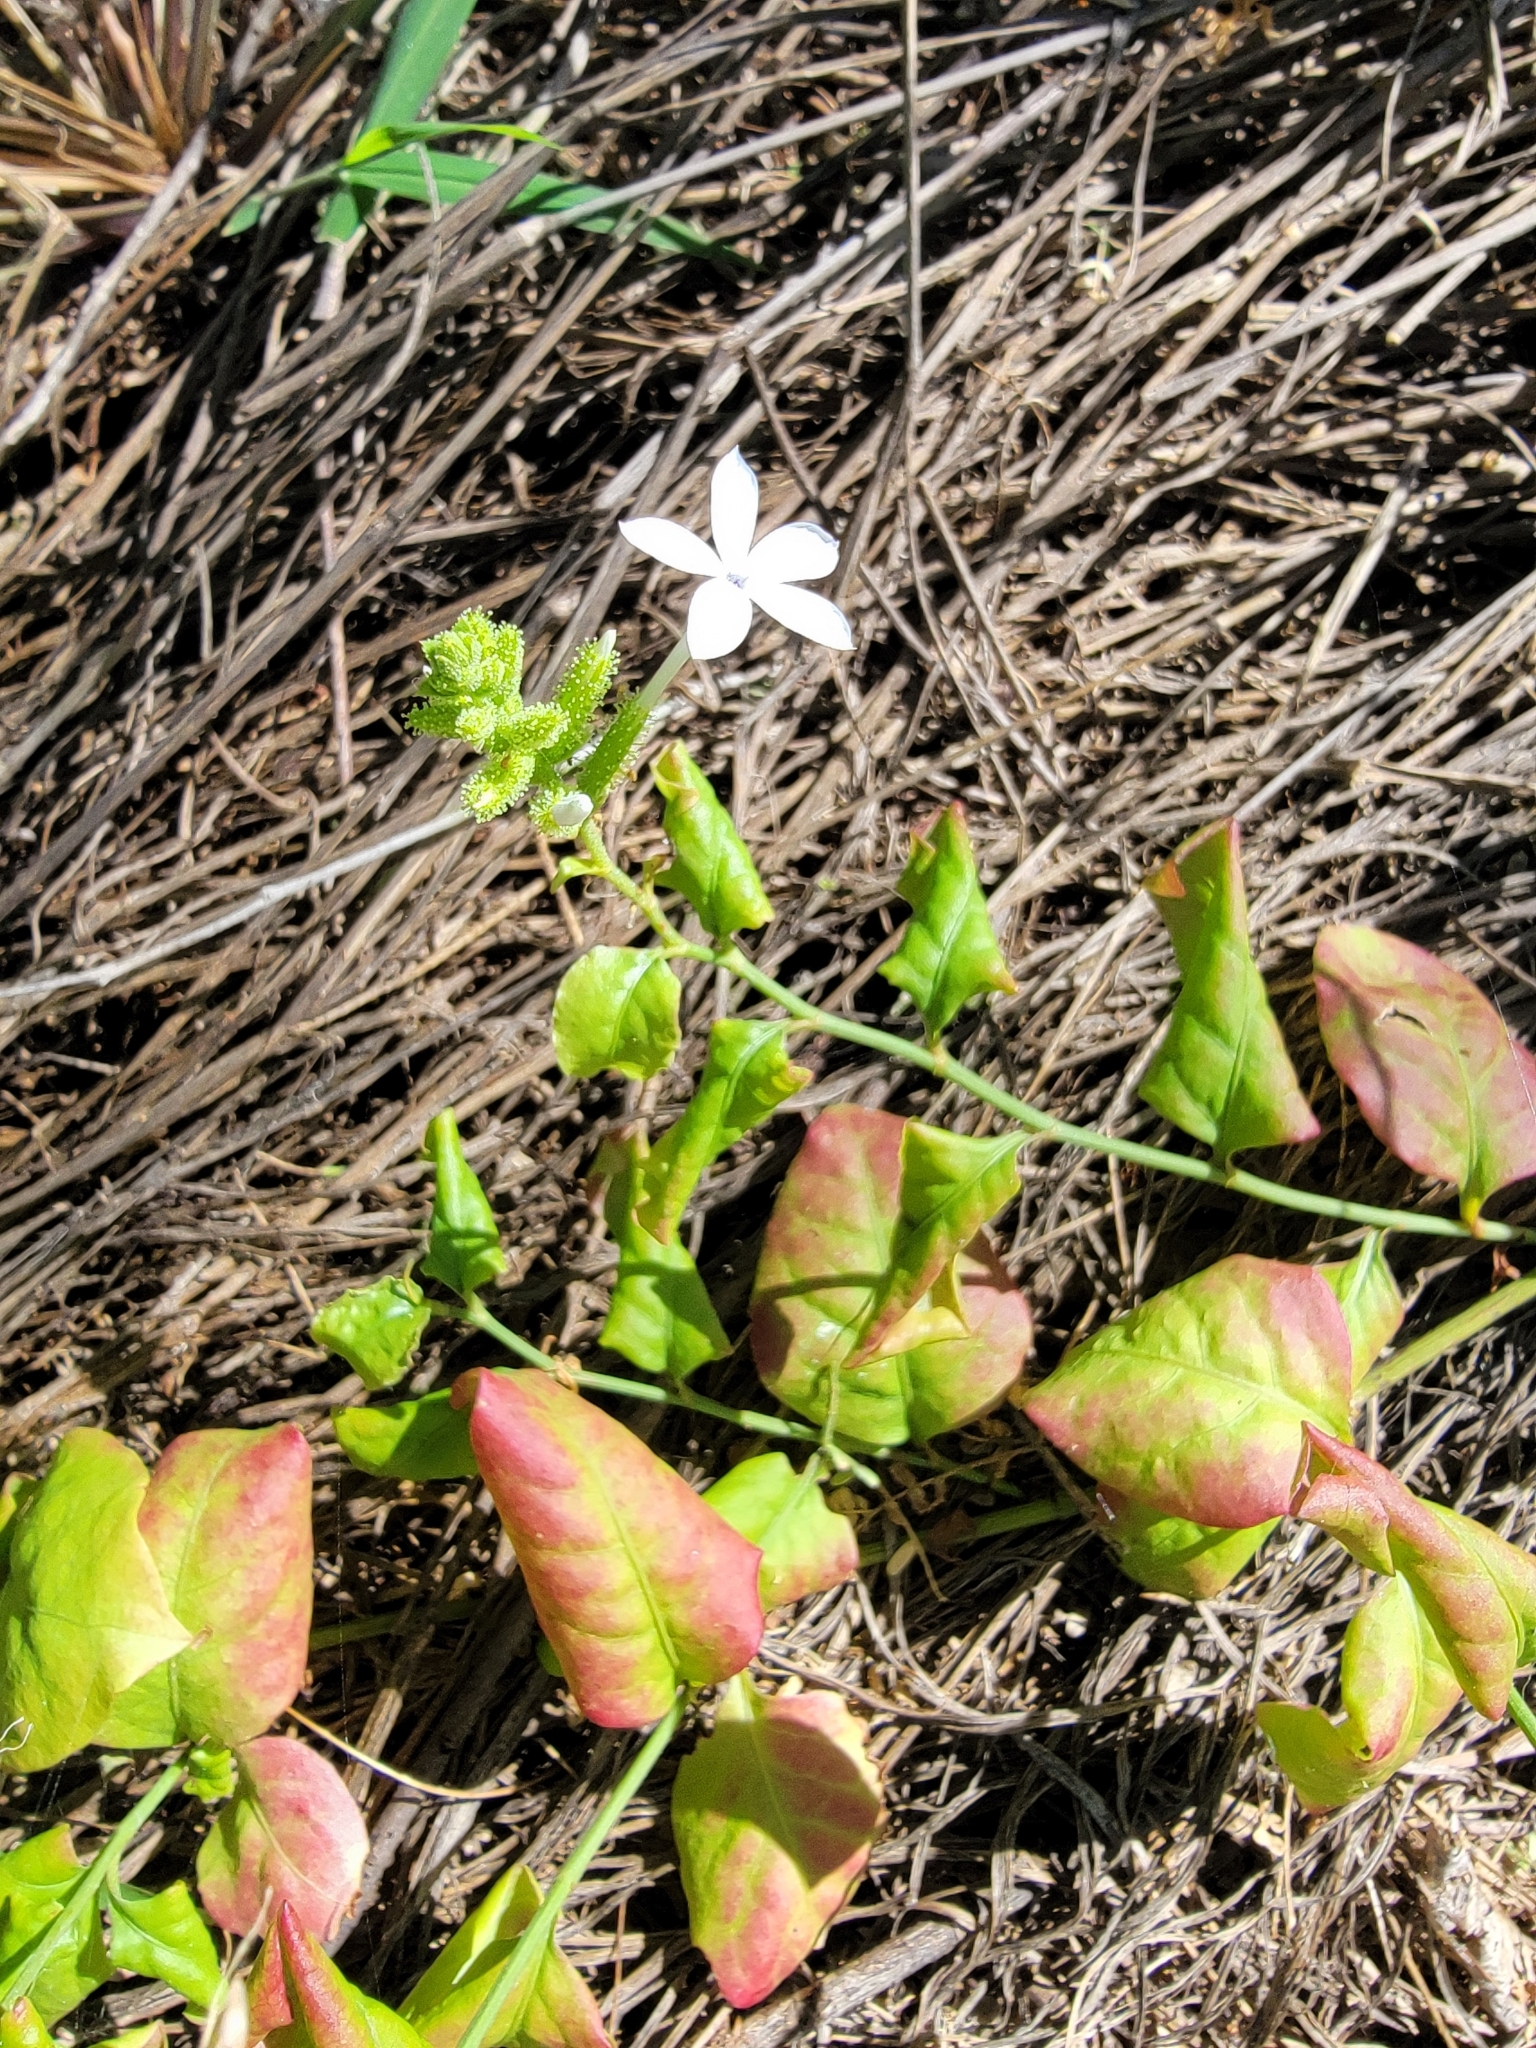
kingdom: Plantae
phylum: Tracheophyta
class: Magnoliopsida
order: Caryophyllales
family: Plumbaginaceae
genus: Plumbago
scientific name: Plumbago zeylanica
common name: Doctorbush
